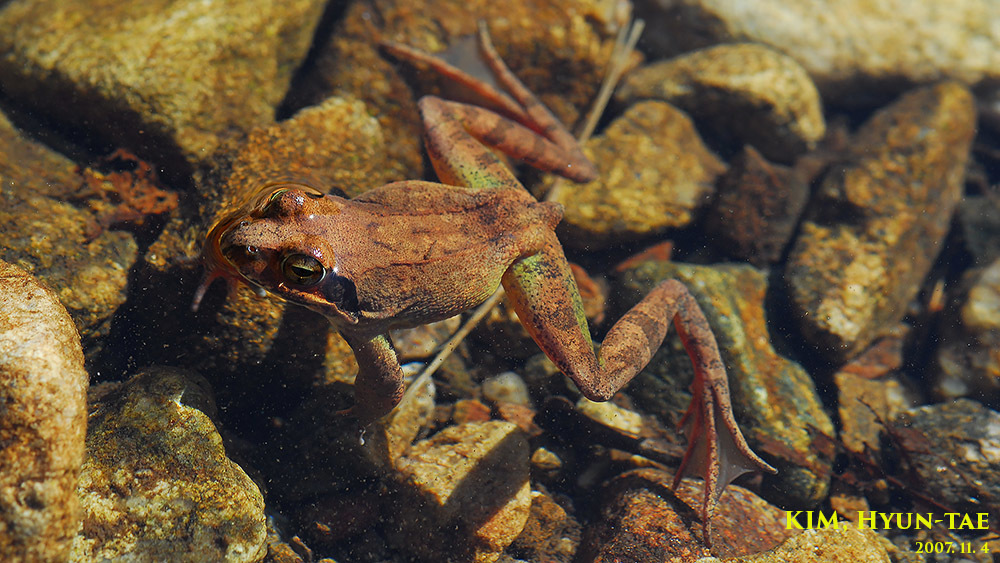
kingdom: Animalia
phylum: Chordata
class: Amphibia
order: Anura
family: Ranidae
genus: Rana
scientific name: Rana uenoi
